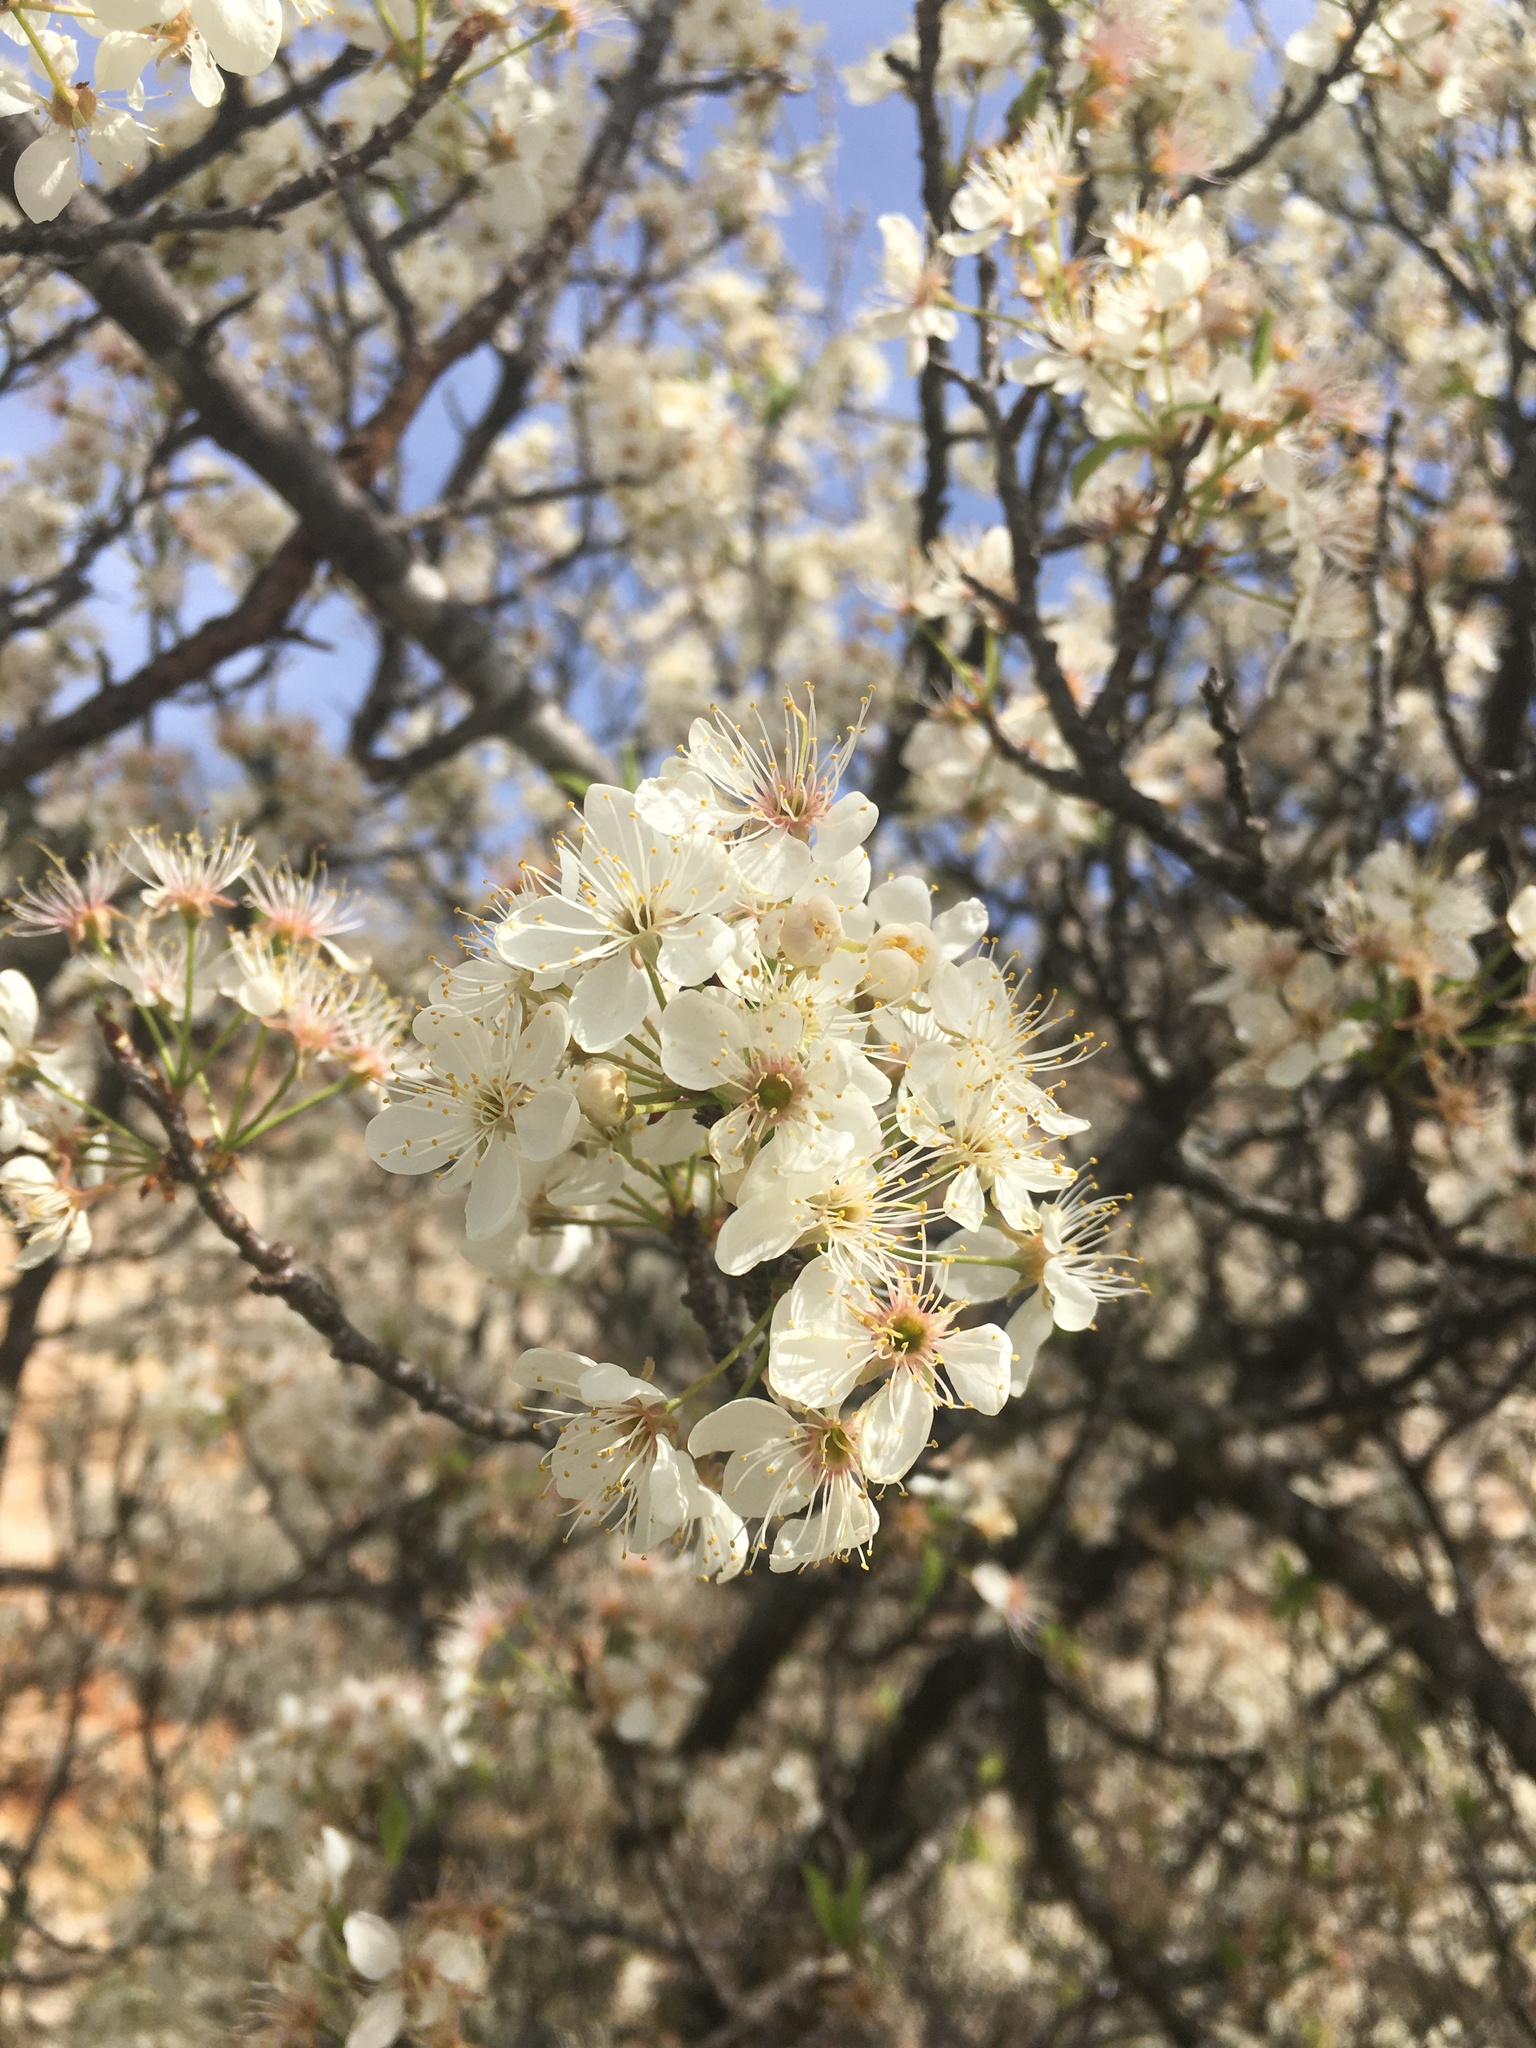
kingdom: Plantae
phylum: Tracheophyta
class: Magnoliopsida
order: Rosales
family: Rosaceae
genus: Prunus
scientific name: Prunus mexicana
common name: Mexican plum
